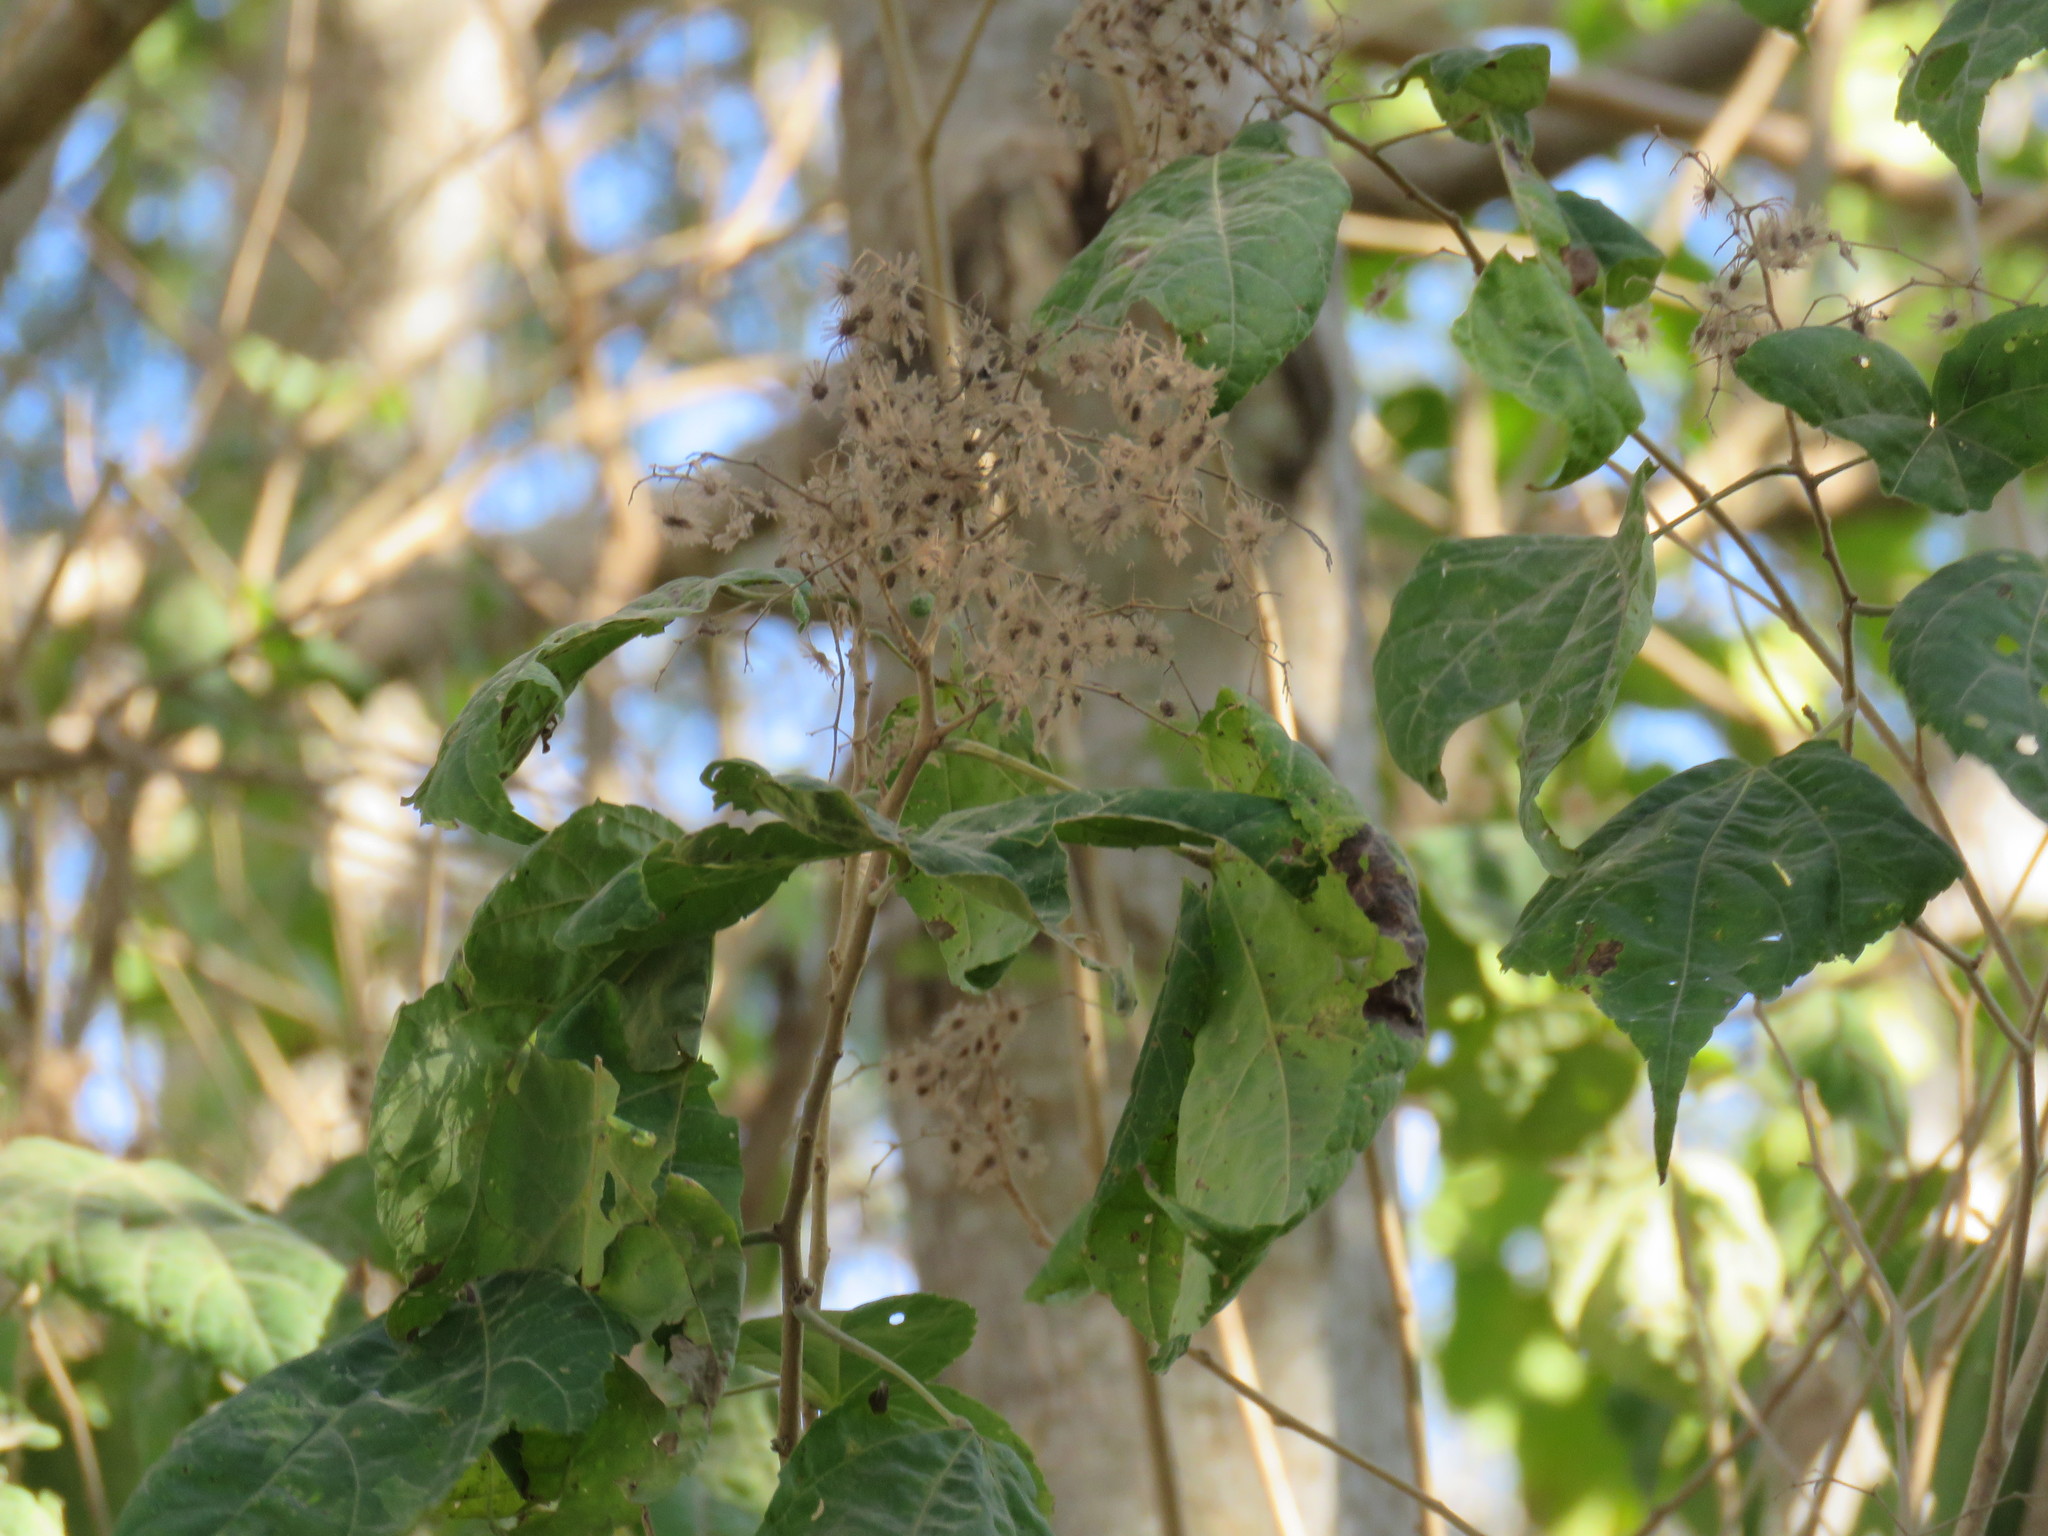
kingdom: Plantae
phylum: Tracheophyta
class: Magnoliopsida
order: Malvales
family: Malvaceae
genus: Heliocarpus
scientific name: Heliocarpus pallidus
